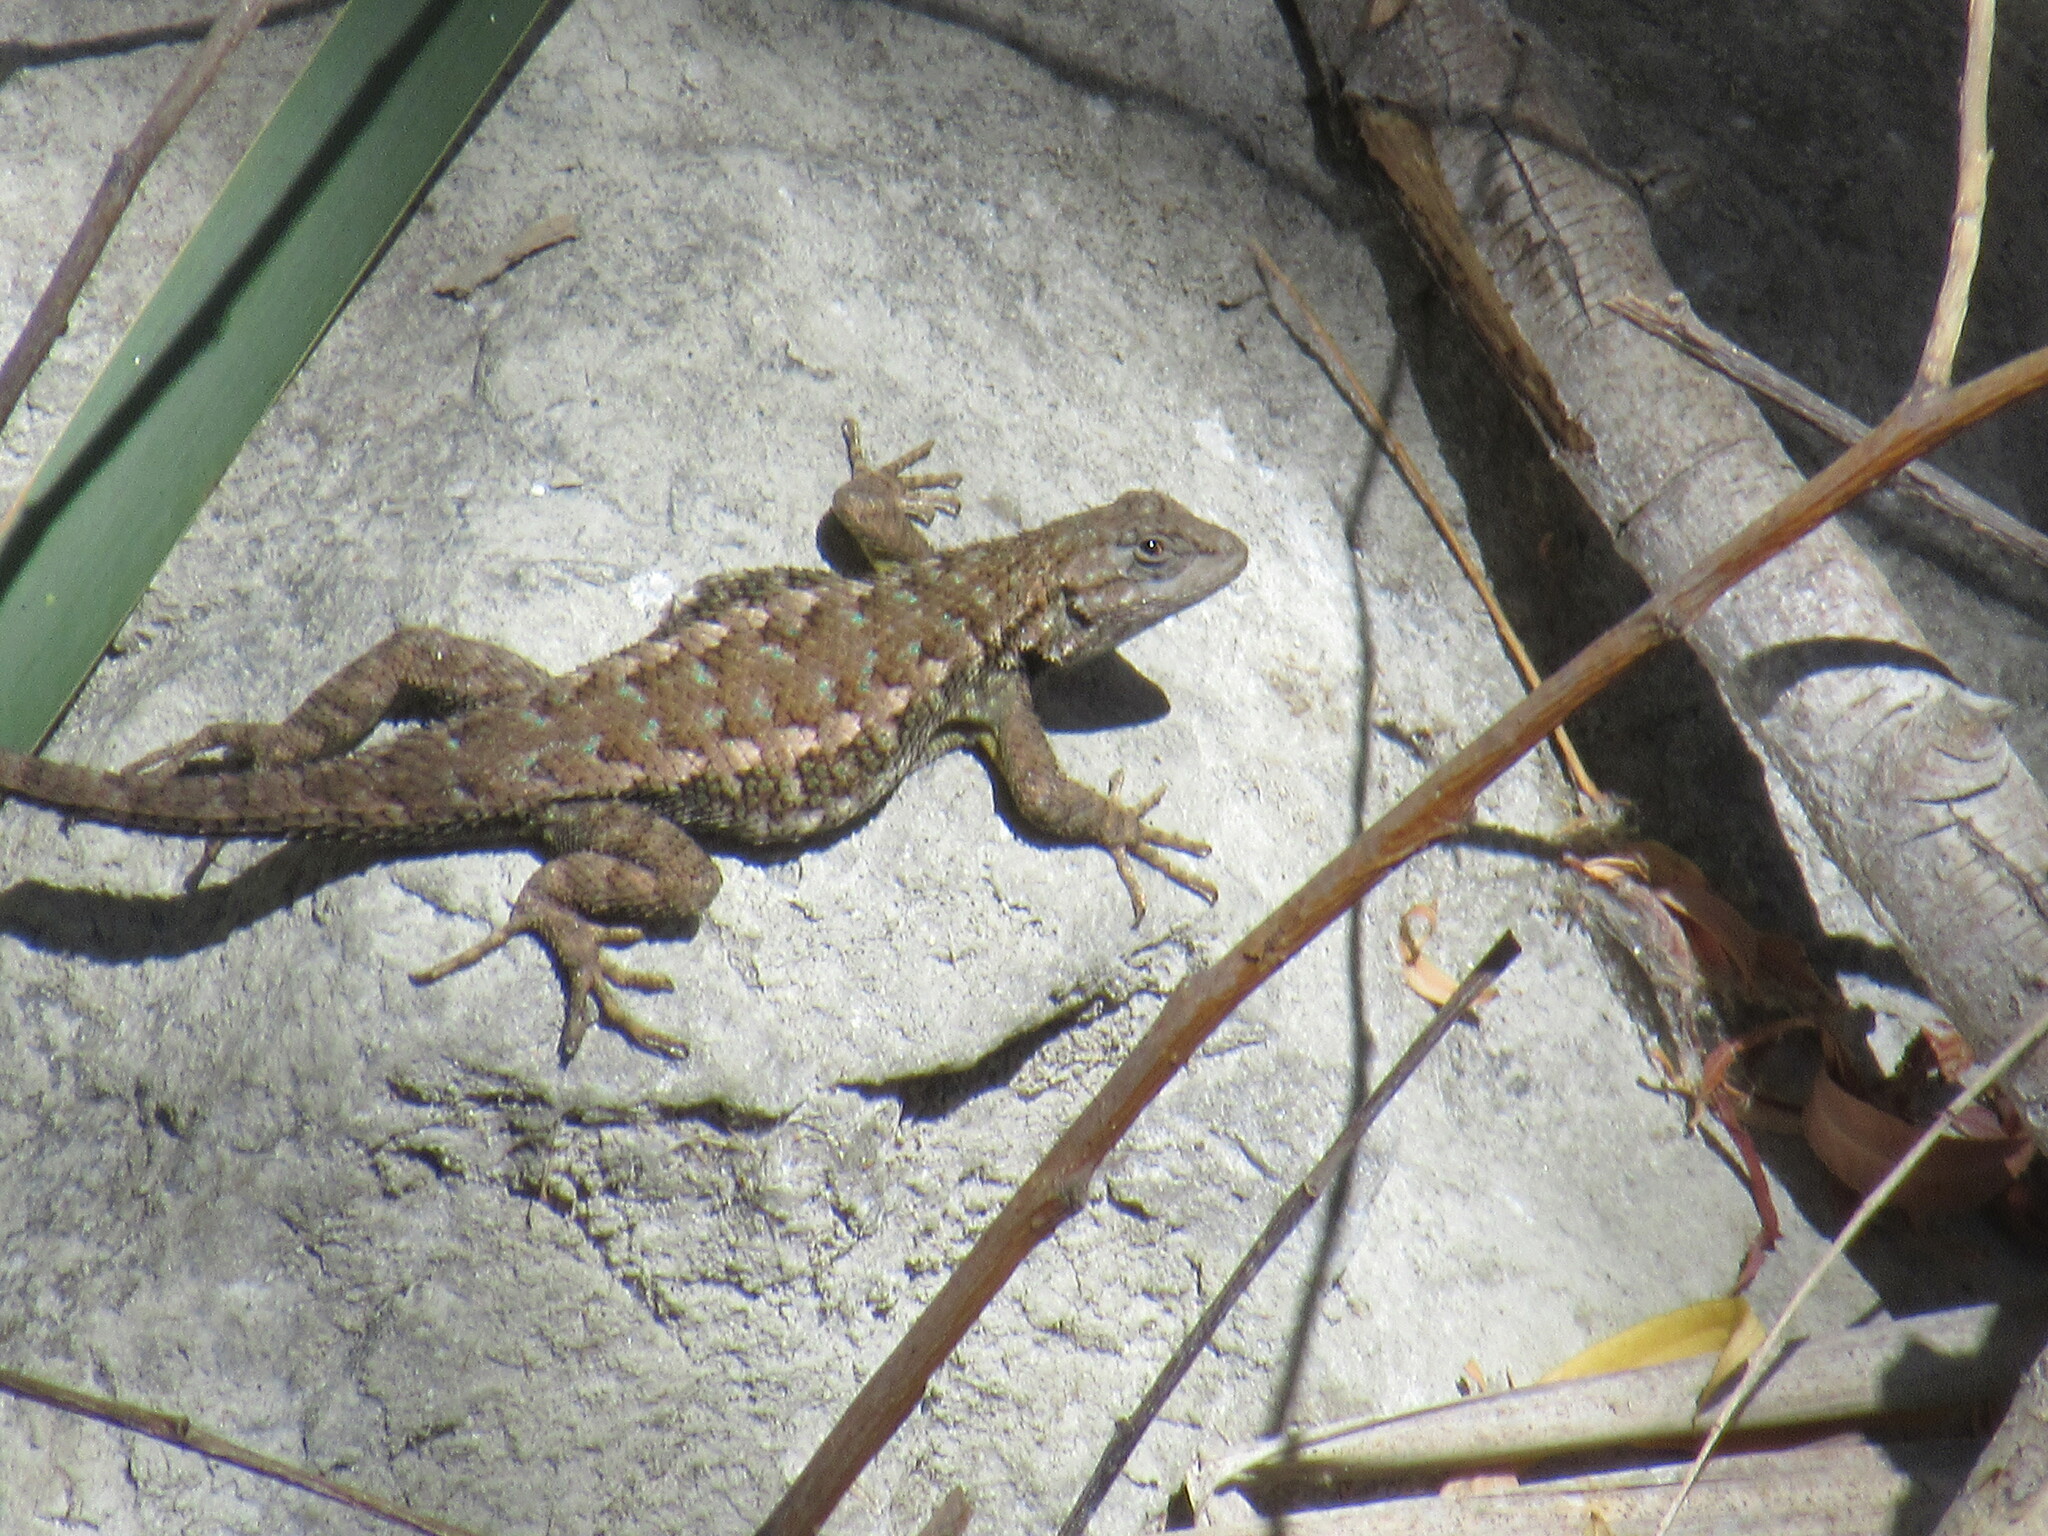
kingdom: Animalia
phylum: Chordata
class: Squamata
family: Phrynosomatidae
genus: Sceloporus
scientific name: Sceloporus occidentalis
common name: Western fence lizard
